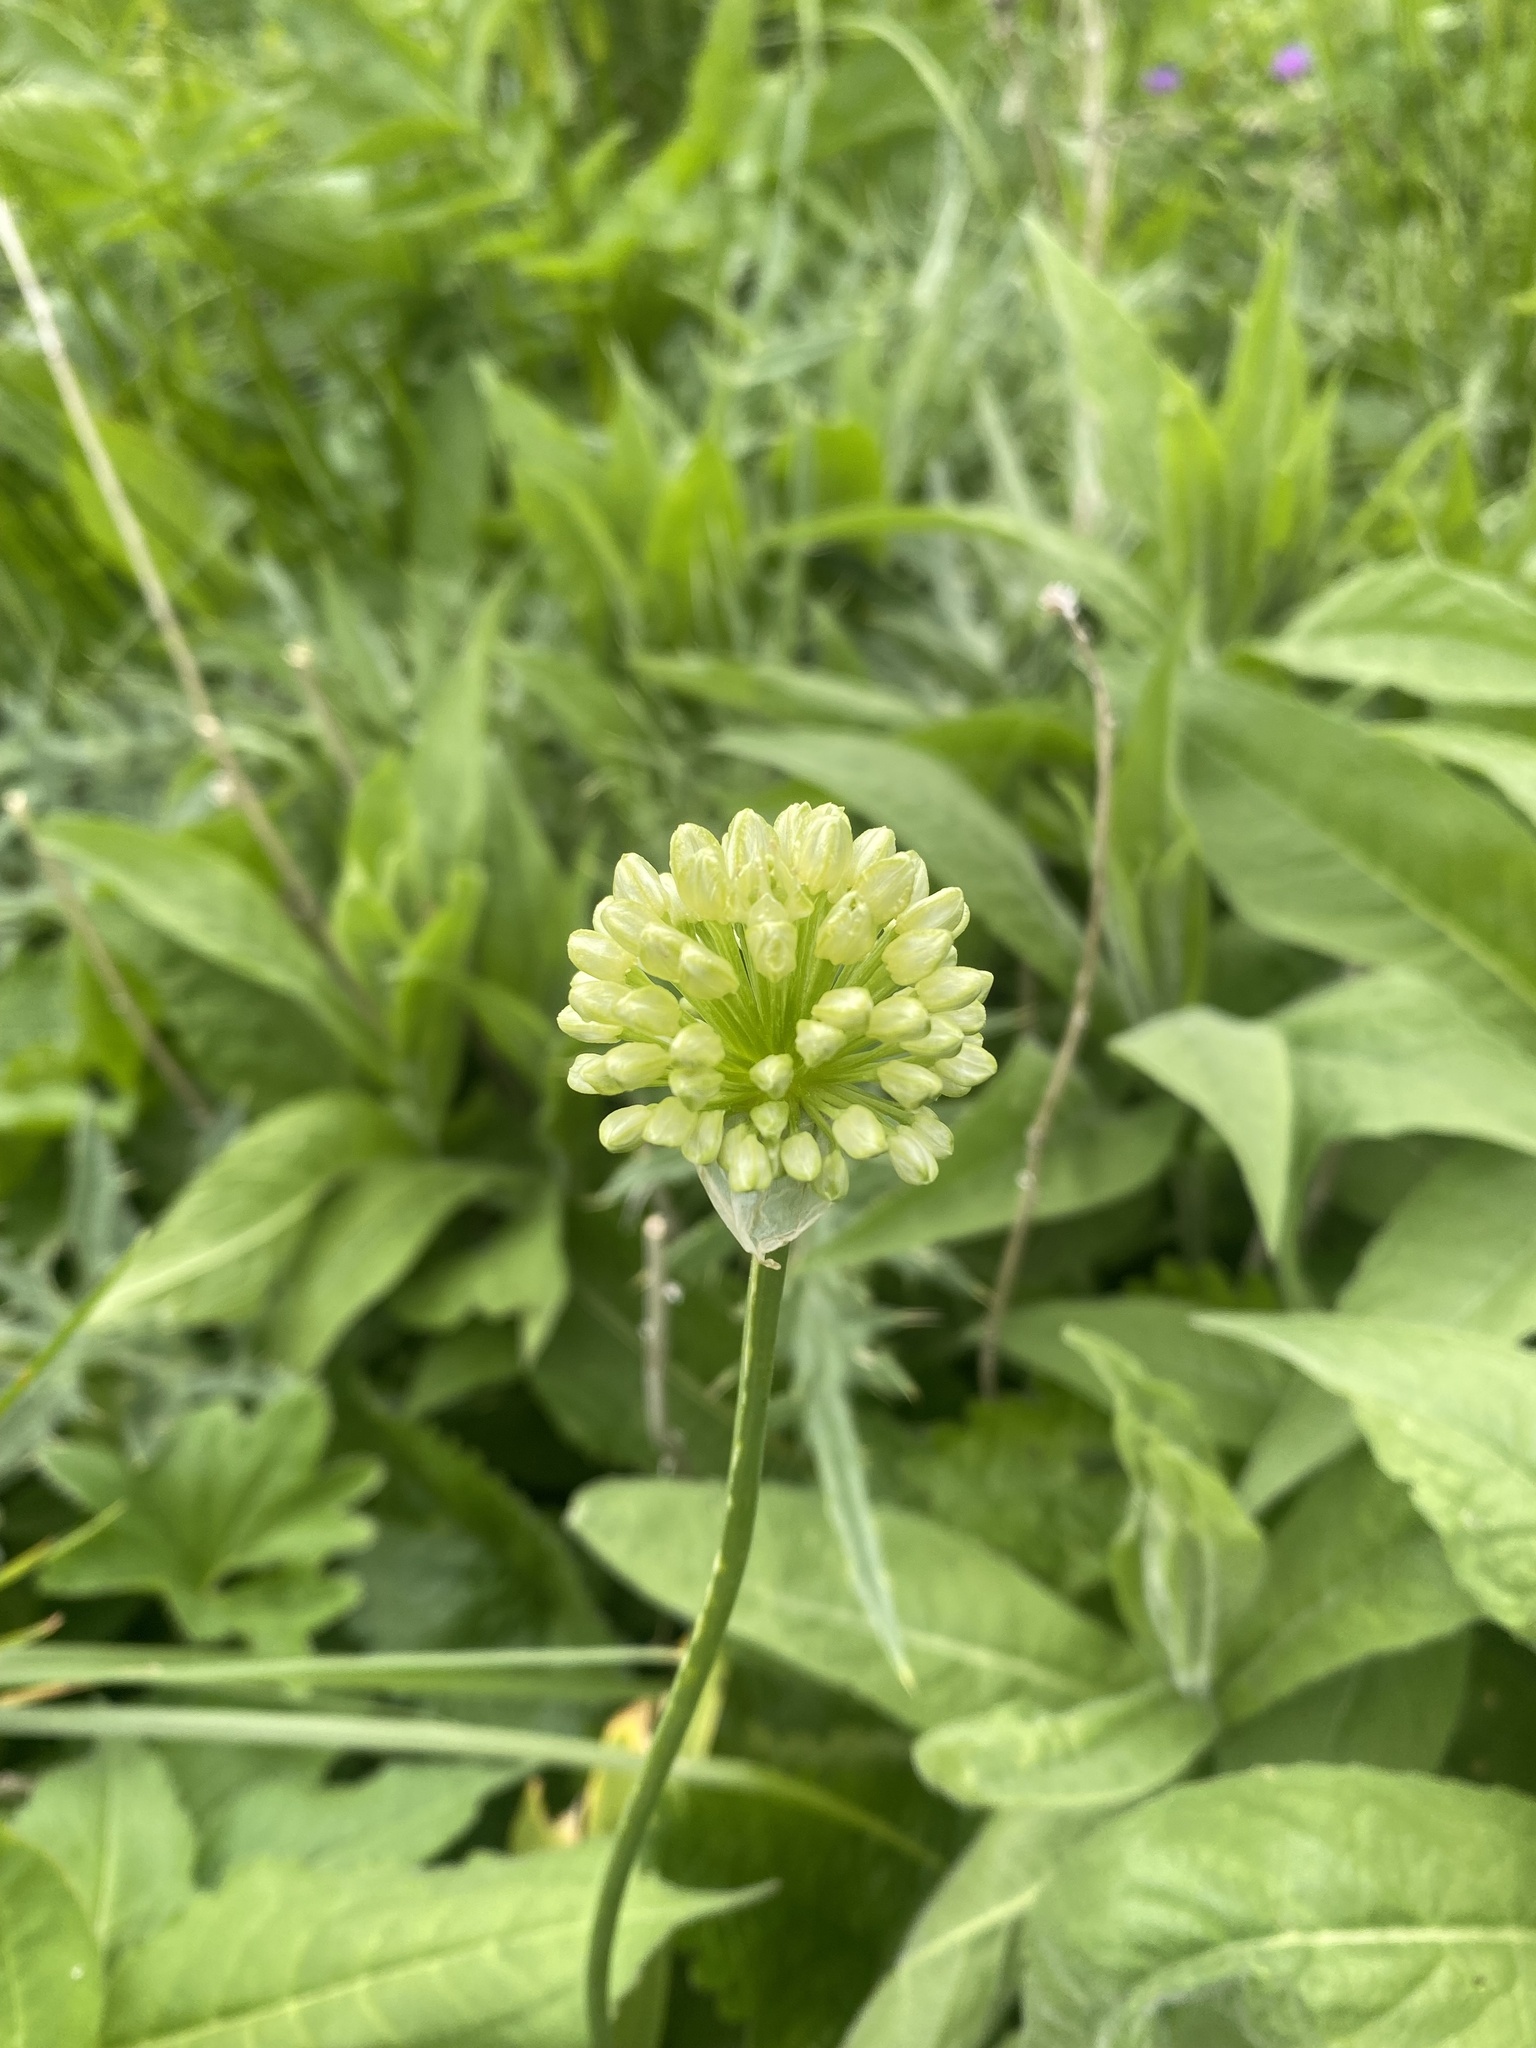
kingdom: Plantae
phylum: Tracheophyta
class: Liliopsida
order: Asparagales
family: Amaryllidaceae
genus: Allium
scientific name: Allium victorialis
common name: Alpine leek
